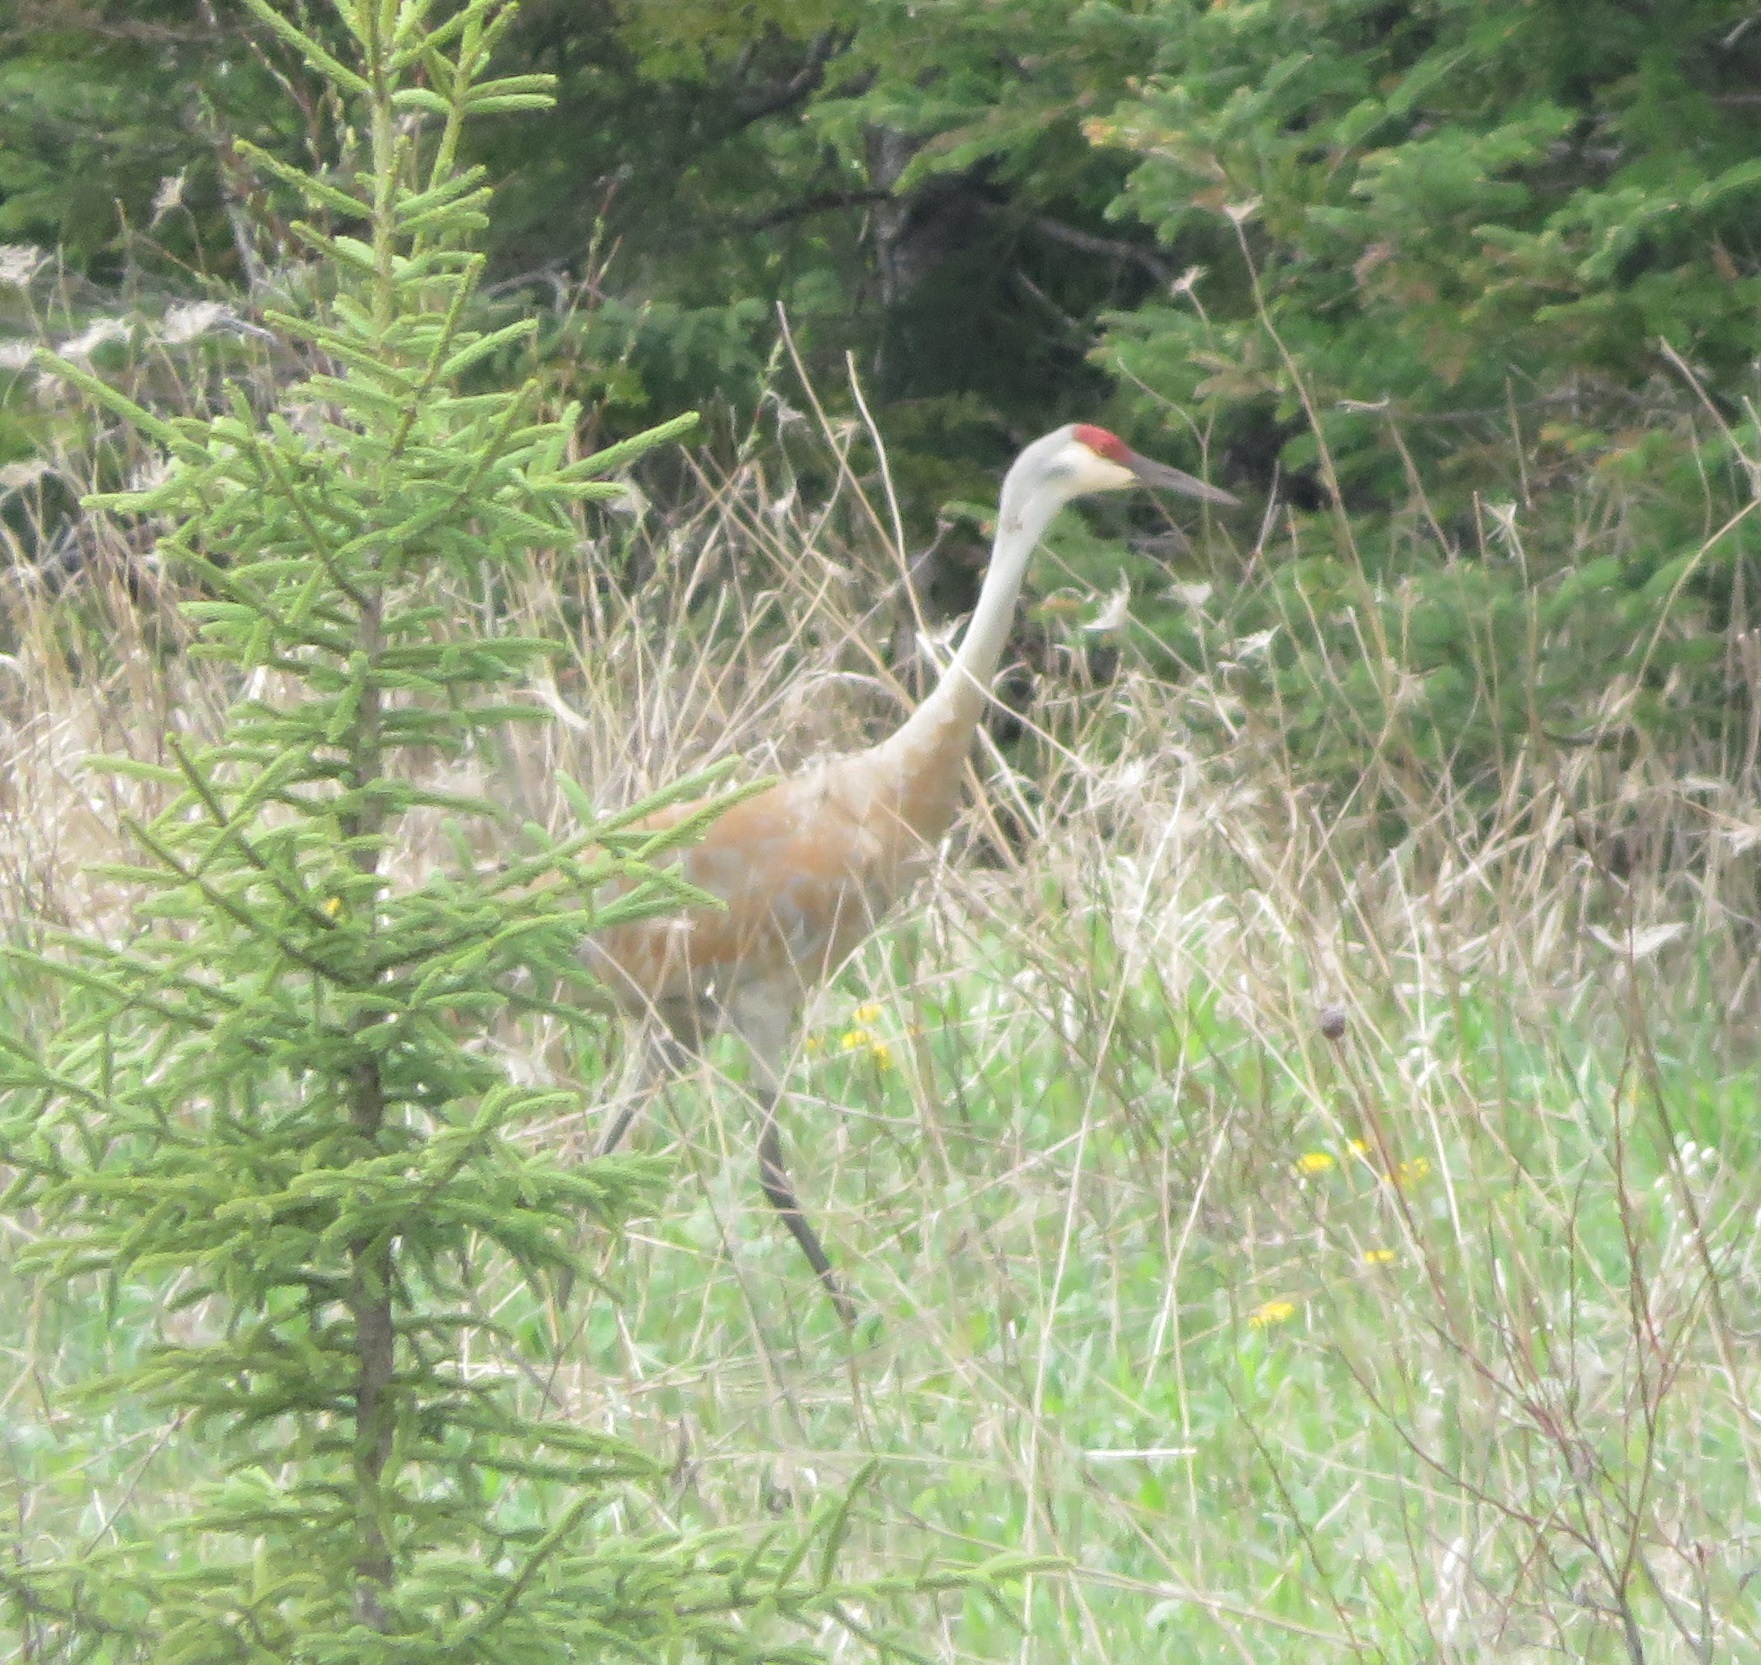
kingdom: Animalia
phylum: Chordata
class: Aves
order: Gruiformes
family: Gruidae
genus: Grus
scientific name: Grus canadensis
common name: Sandhill crane
